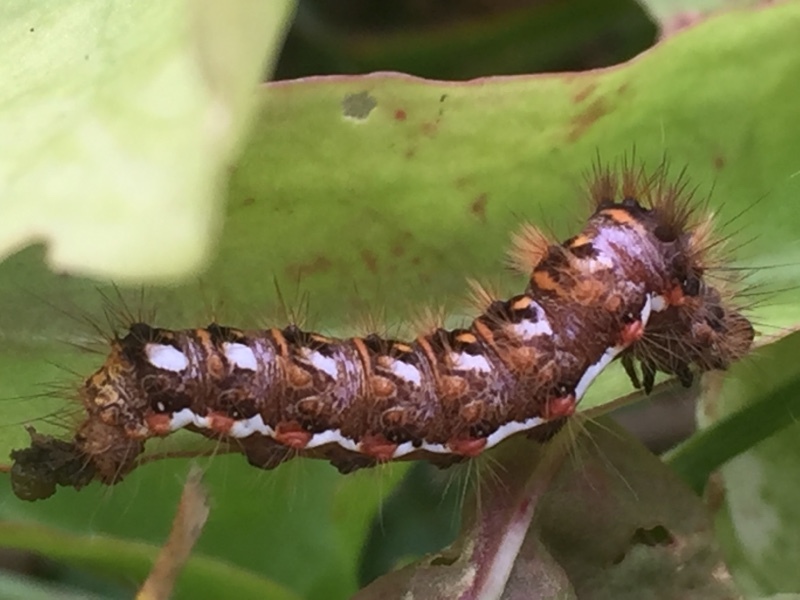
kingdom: Animalia
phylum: Arthropoda
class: Insecta
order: Lepidoptera
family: Noctuidae
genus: Acronicta
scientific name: Acronicta rumicis
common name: Knot grass
